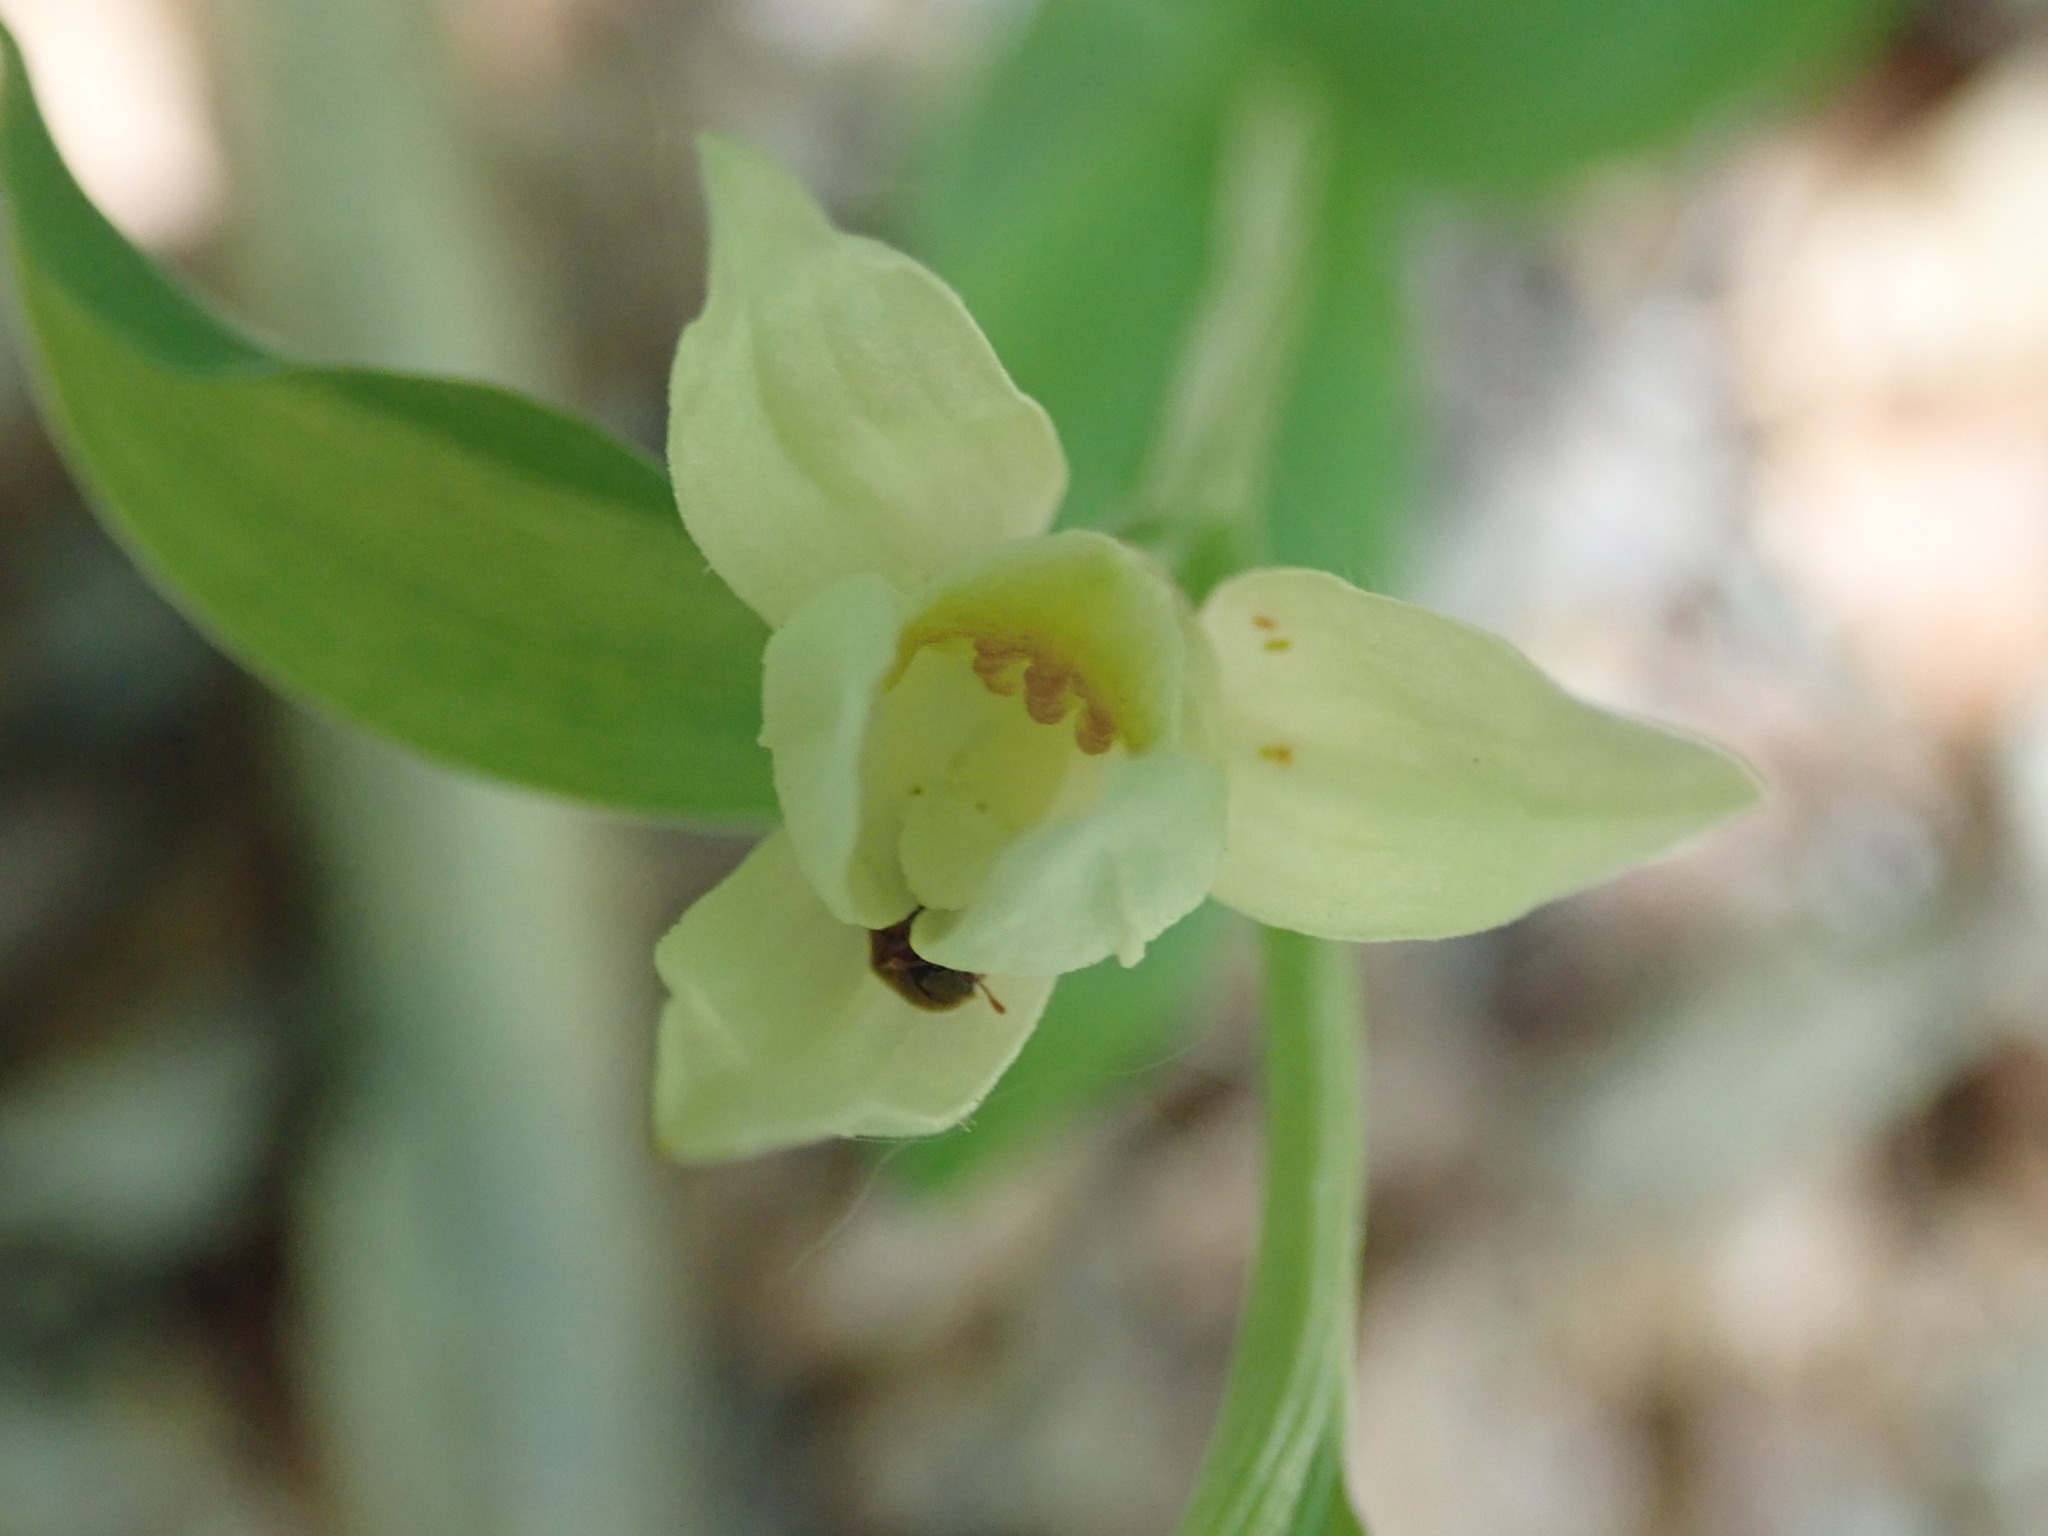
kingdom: Plantae
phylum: Tracheophyta
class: Liliopsida
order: Asparagales
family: Orchidaceae
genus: Cephalanthera
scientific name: Cephalanthera damasonium
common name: White helleborine
